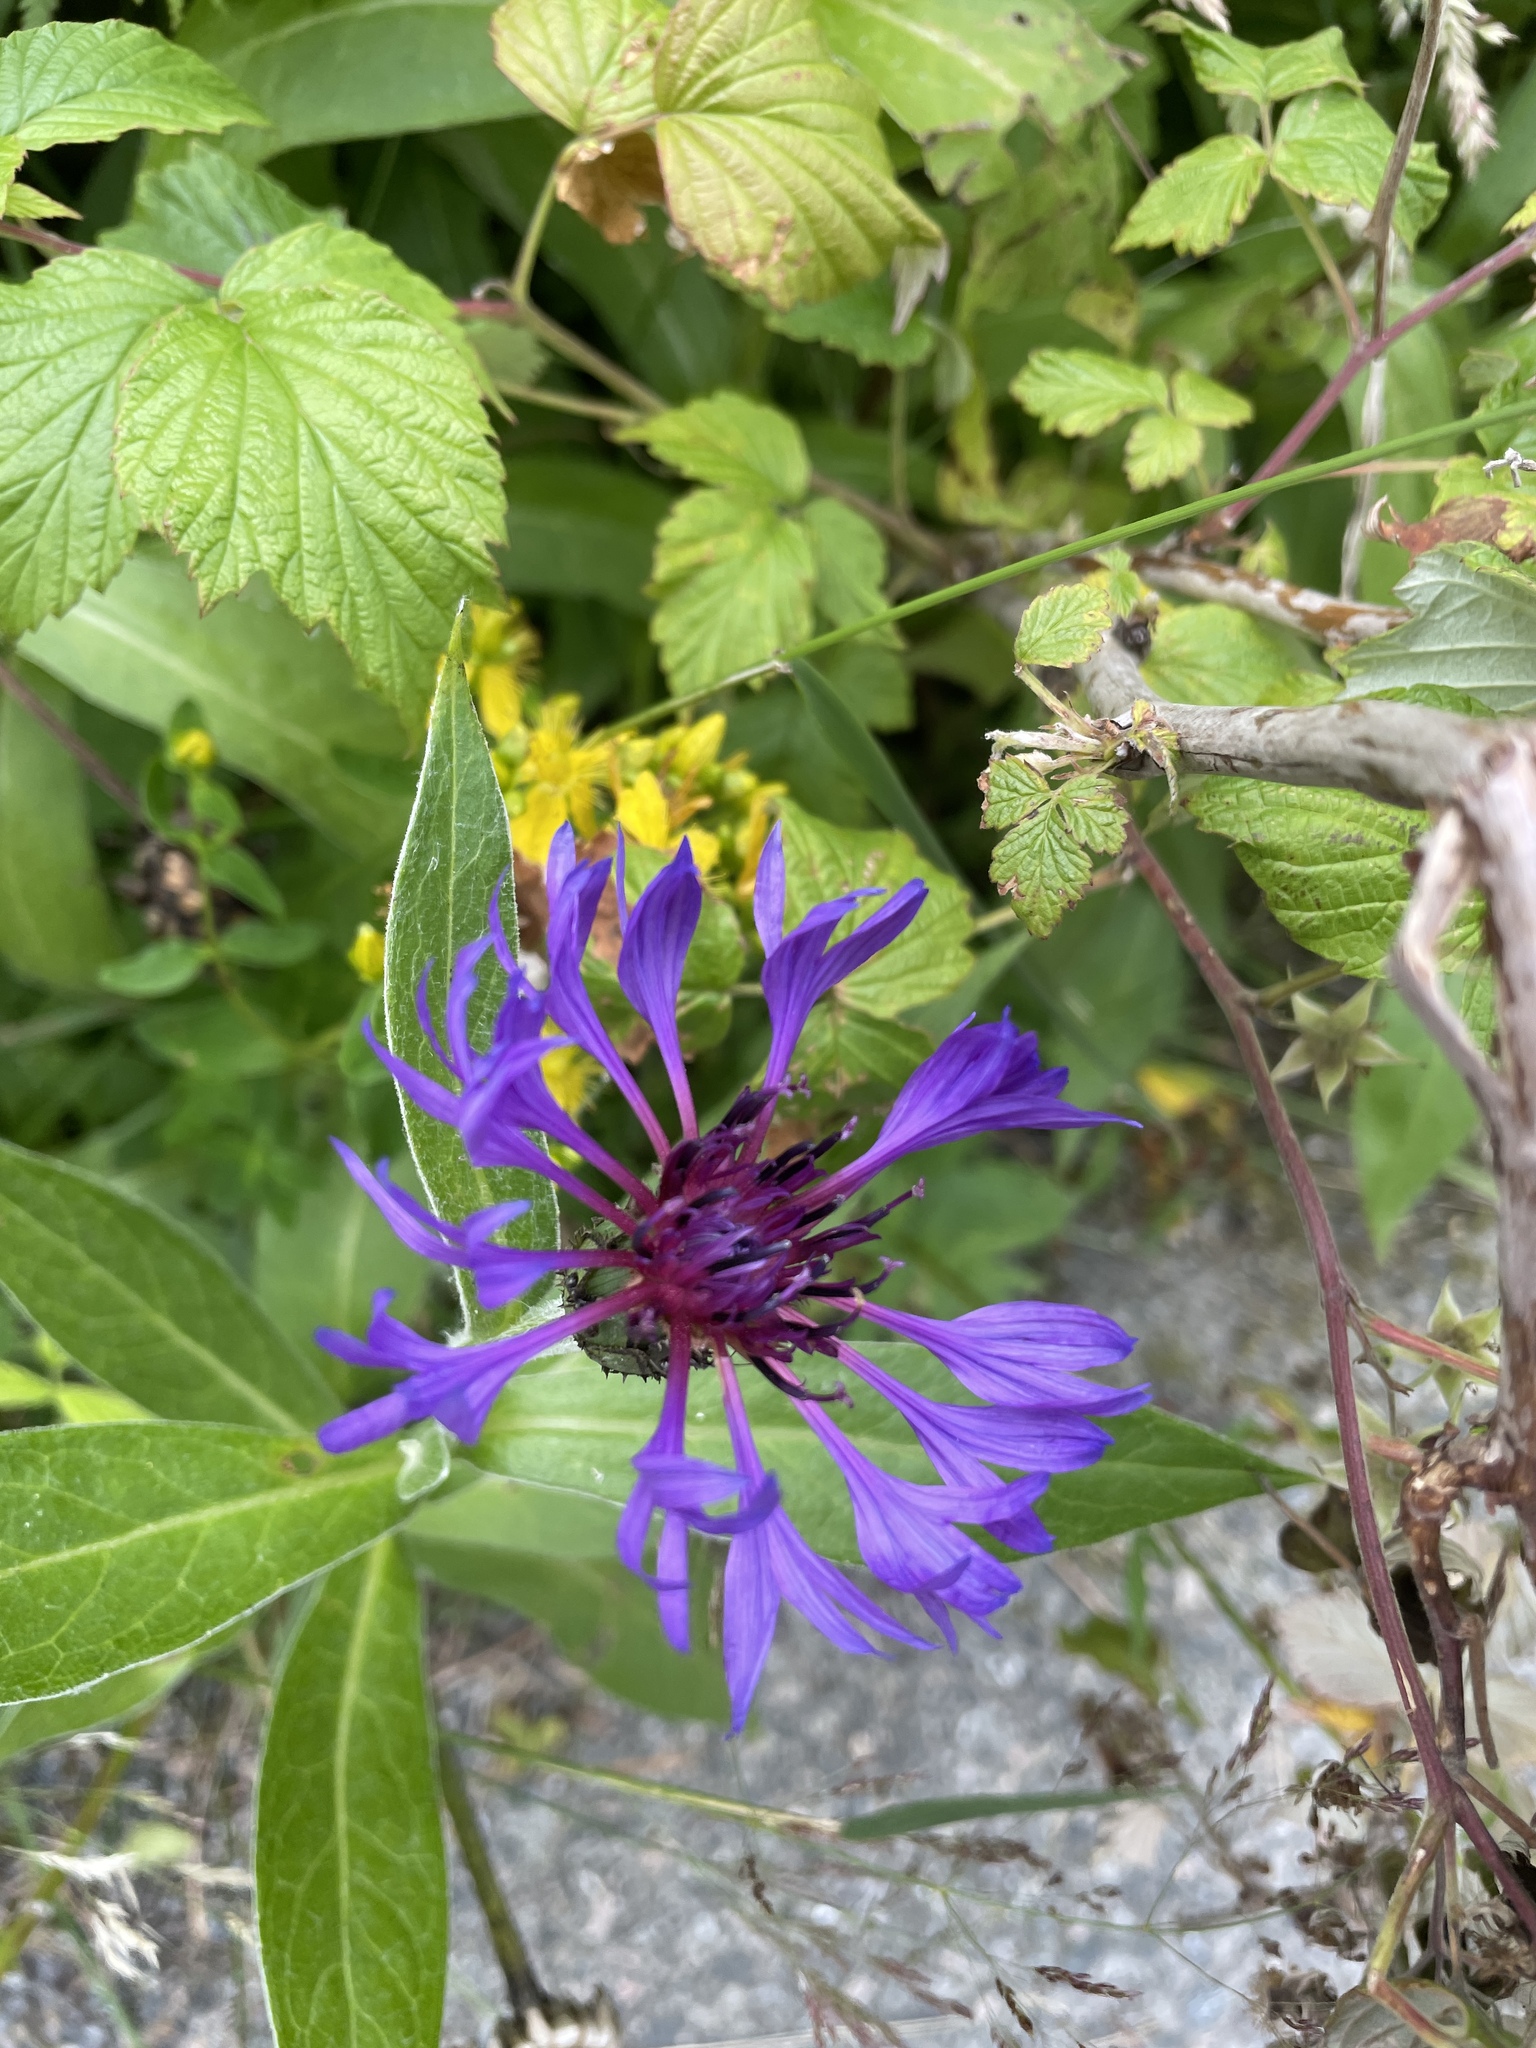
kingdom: Plantae
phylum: Tracheophyta
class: Magnoliopsida
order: Asterales
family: Asteraceae
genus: Centaurea
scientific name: Centaurea montana
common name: Perennial cornflower
